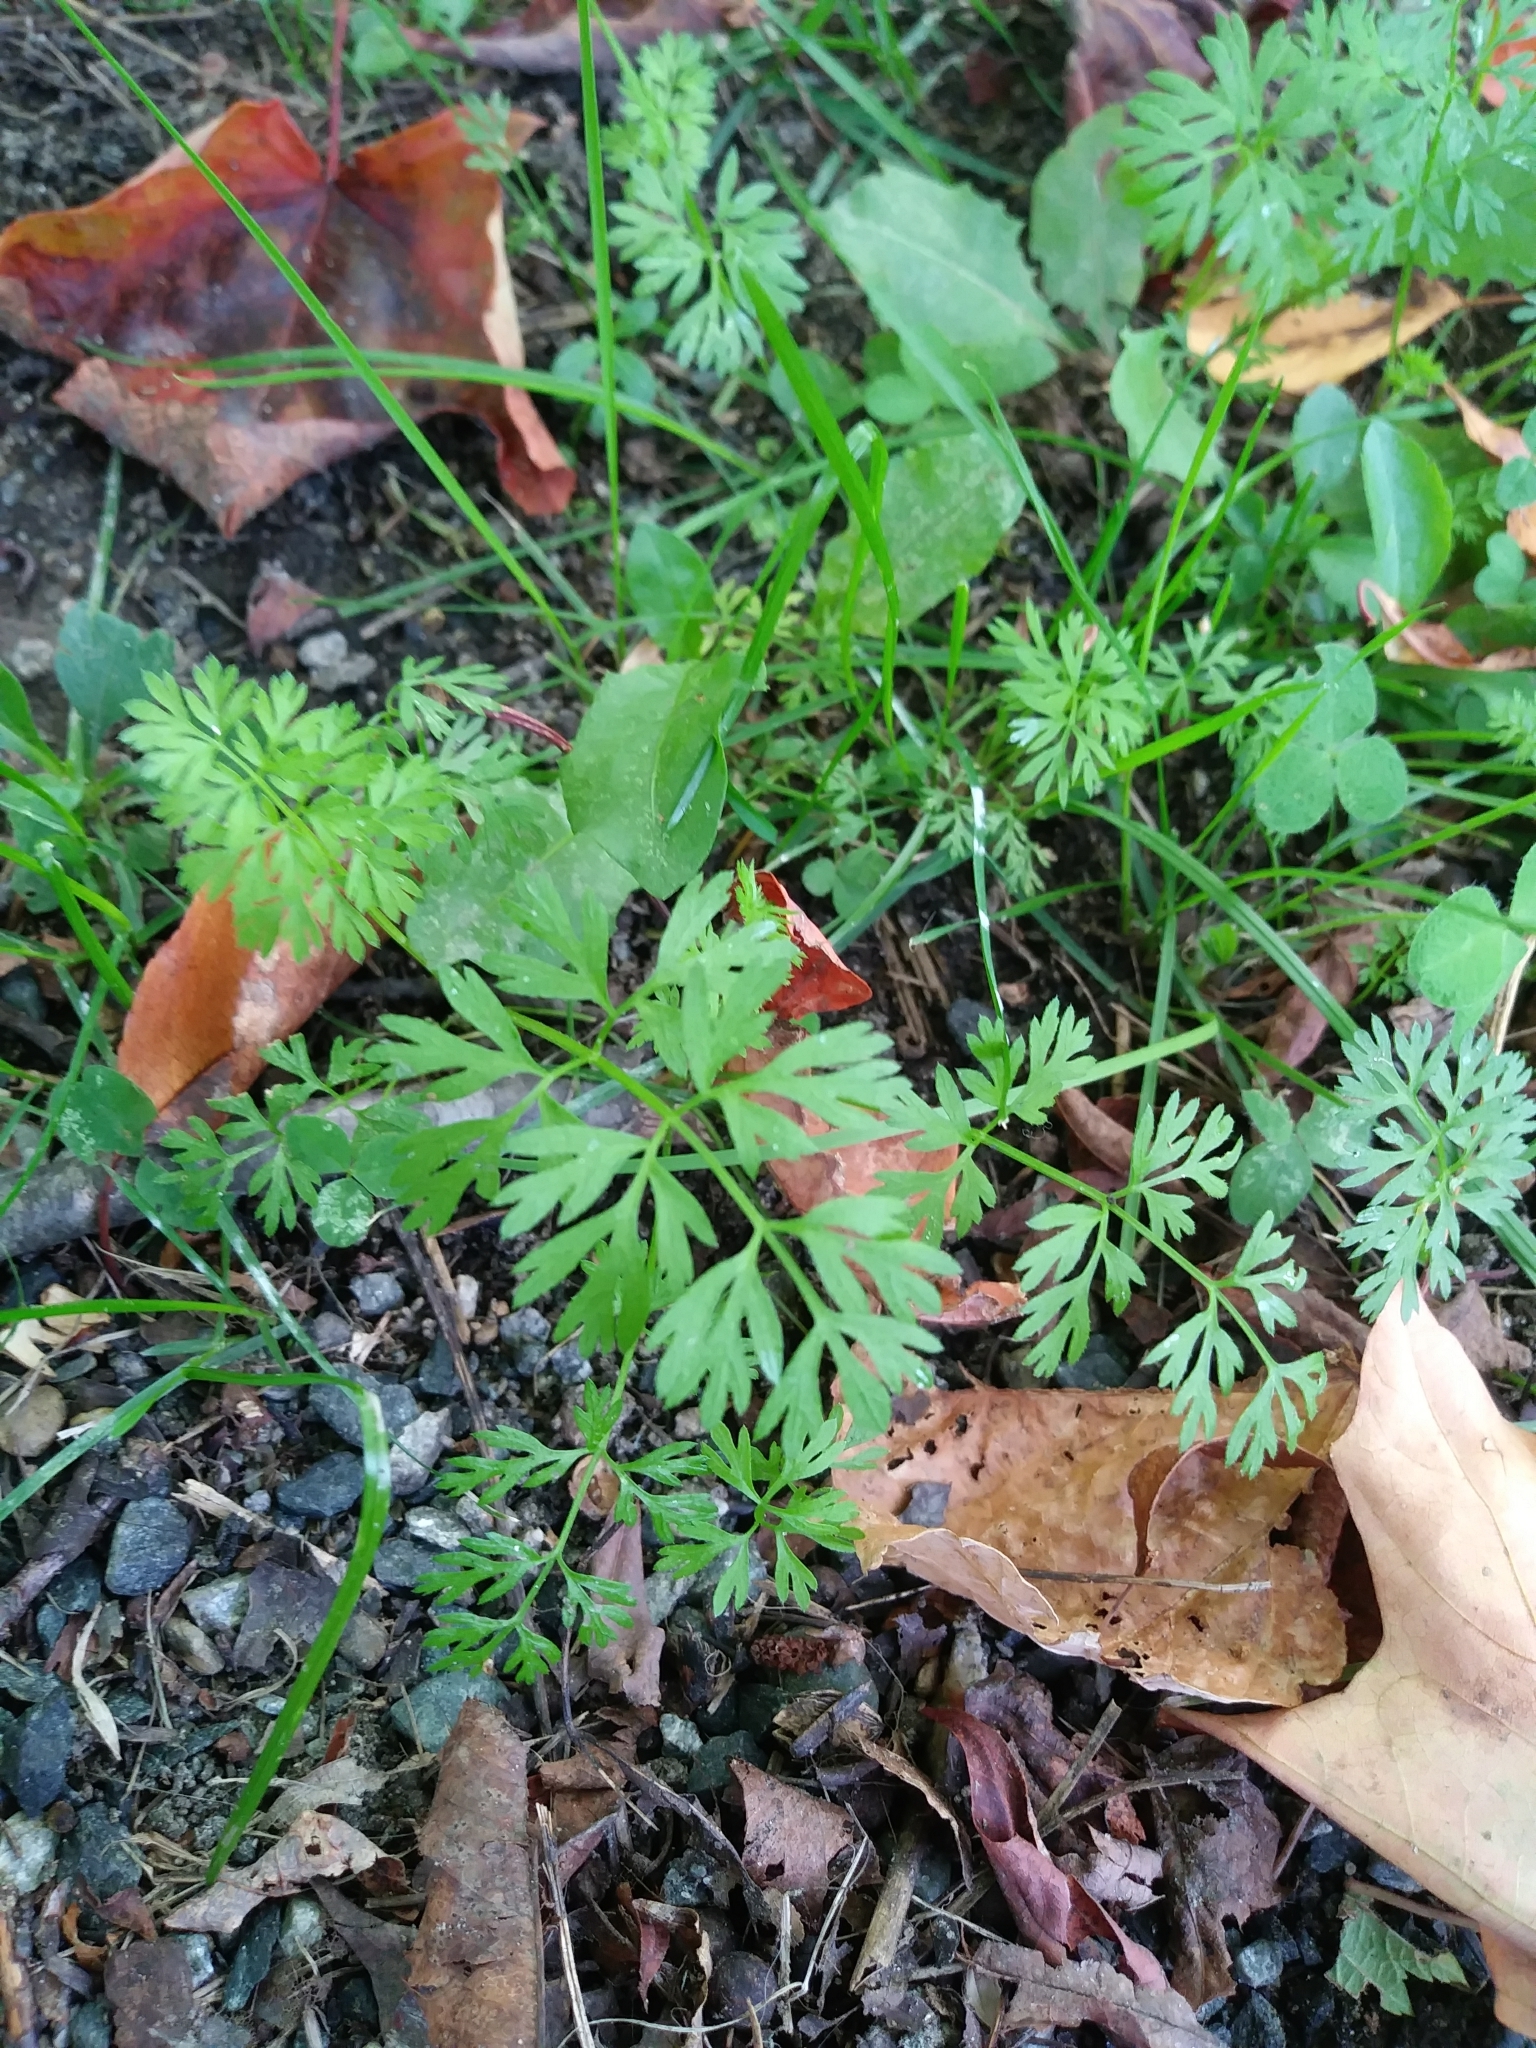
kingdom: Plantae
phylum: Tracheophyta
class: Magnoliopsida
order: Apiales
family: Apiaceae
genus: Daucus
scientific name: Daucus carota
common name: Wild carrot
